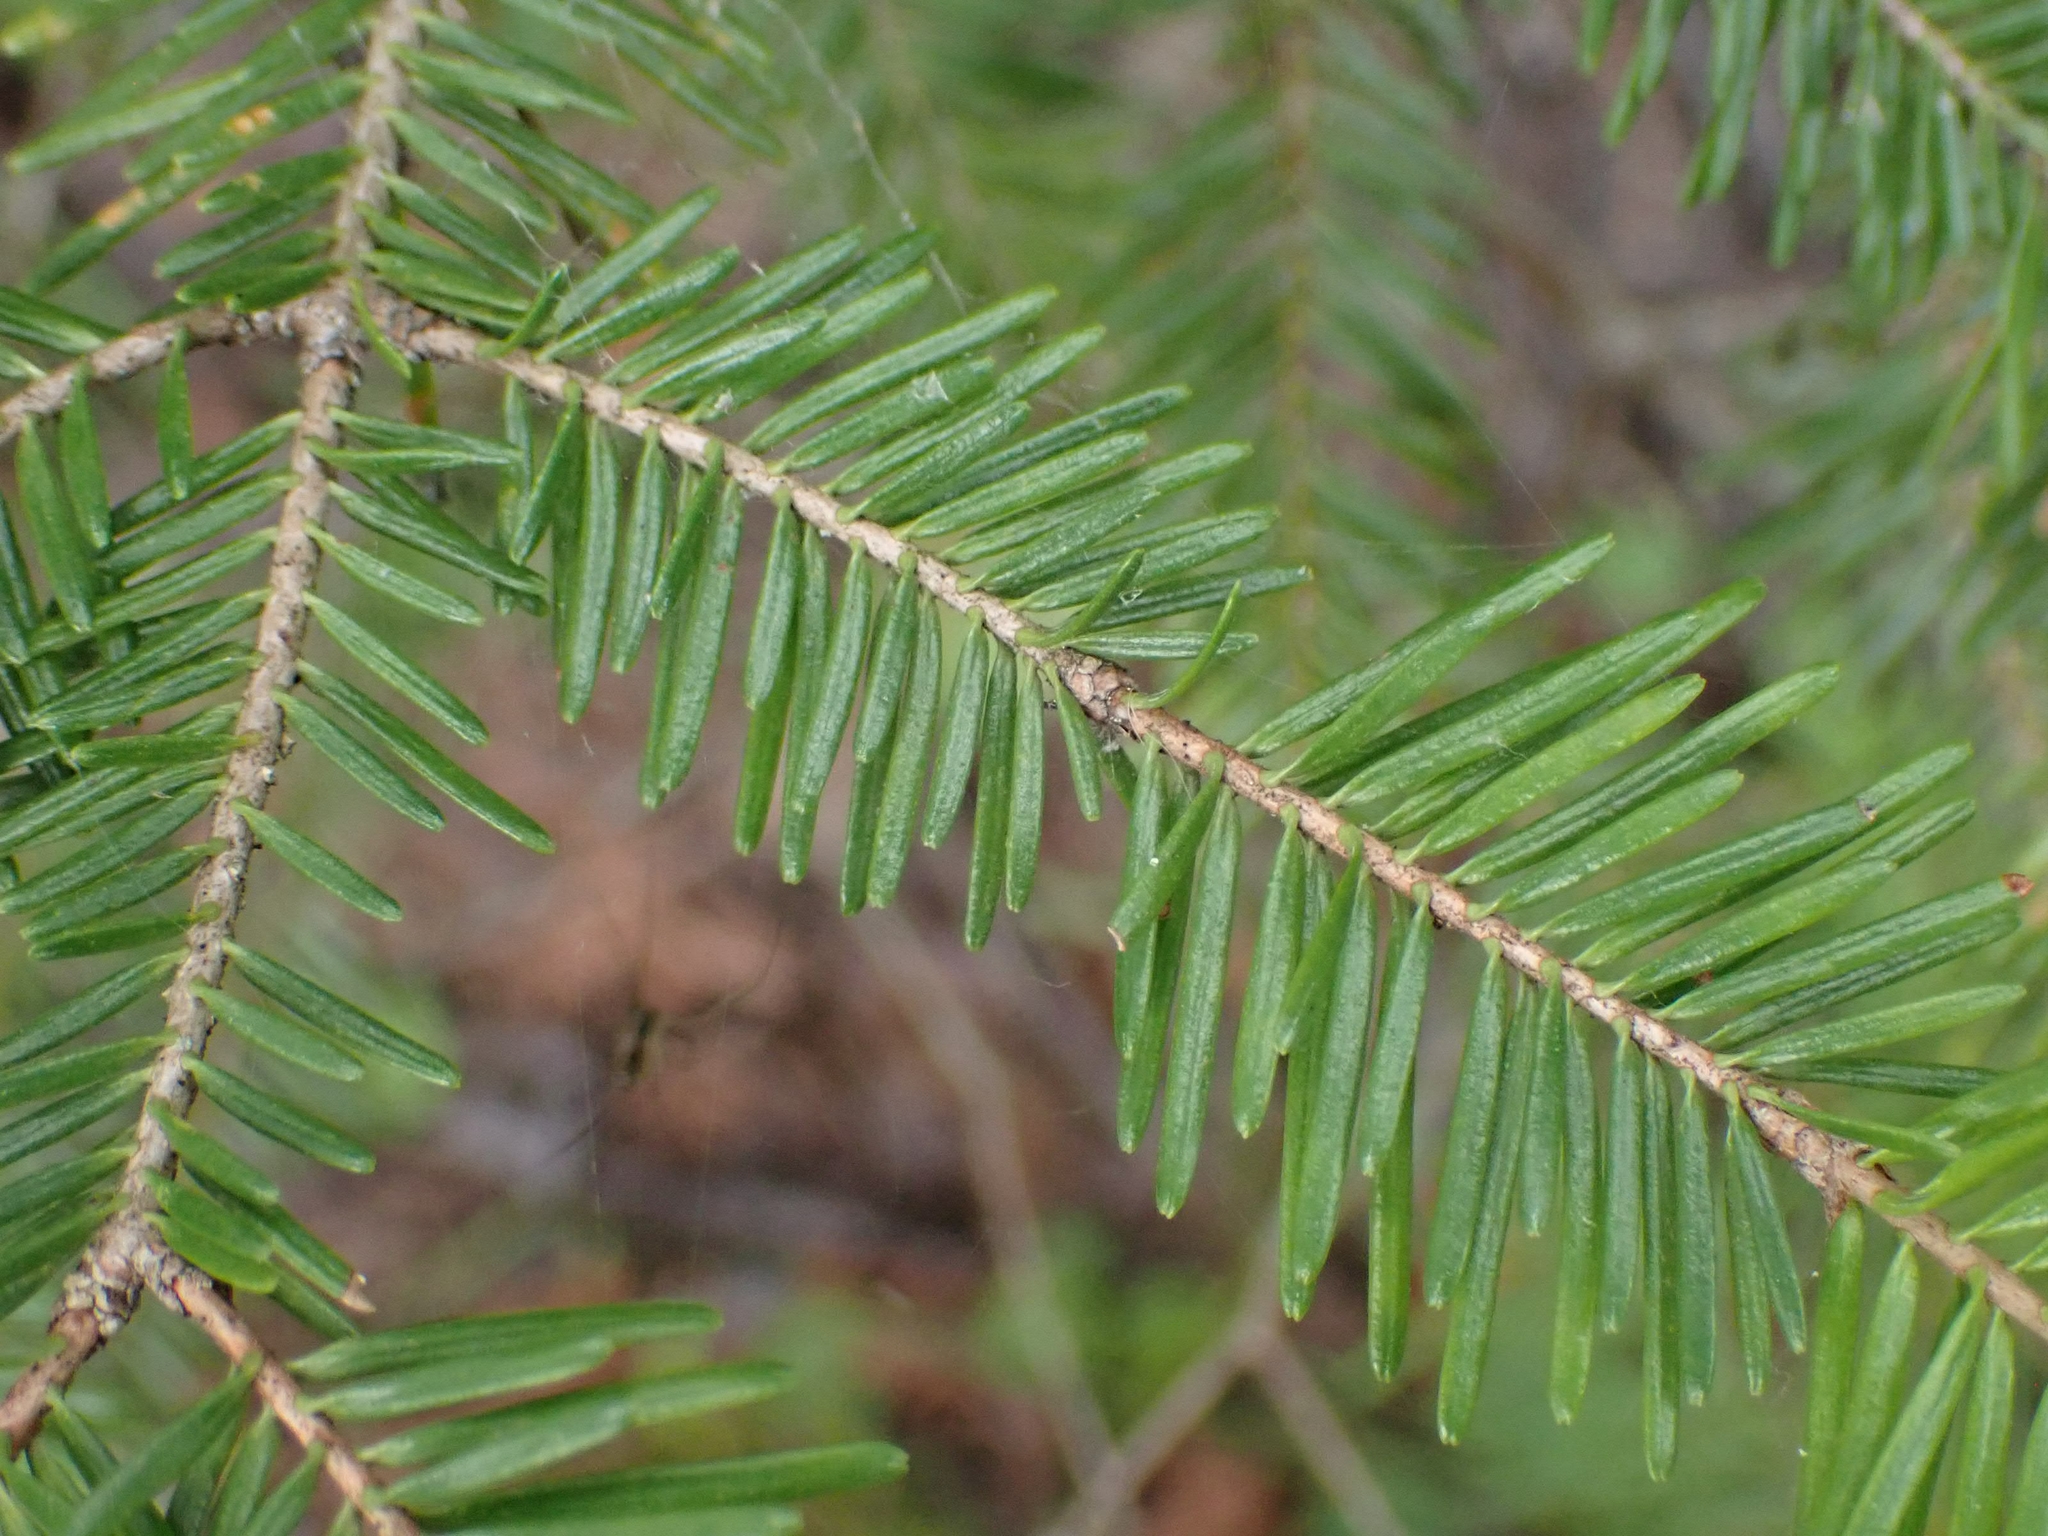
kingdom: Plantae
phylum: Tracheophyta
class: Pinopsida
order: Pinales
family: Pinaceae
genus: Abies
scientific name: Abies balsamea
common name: Balsam fir
